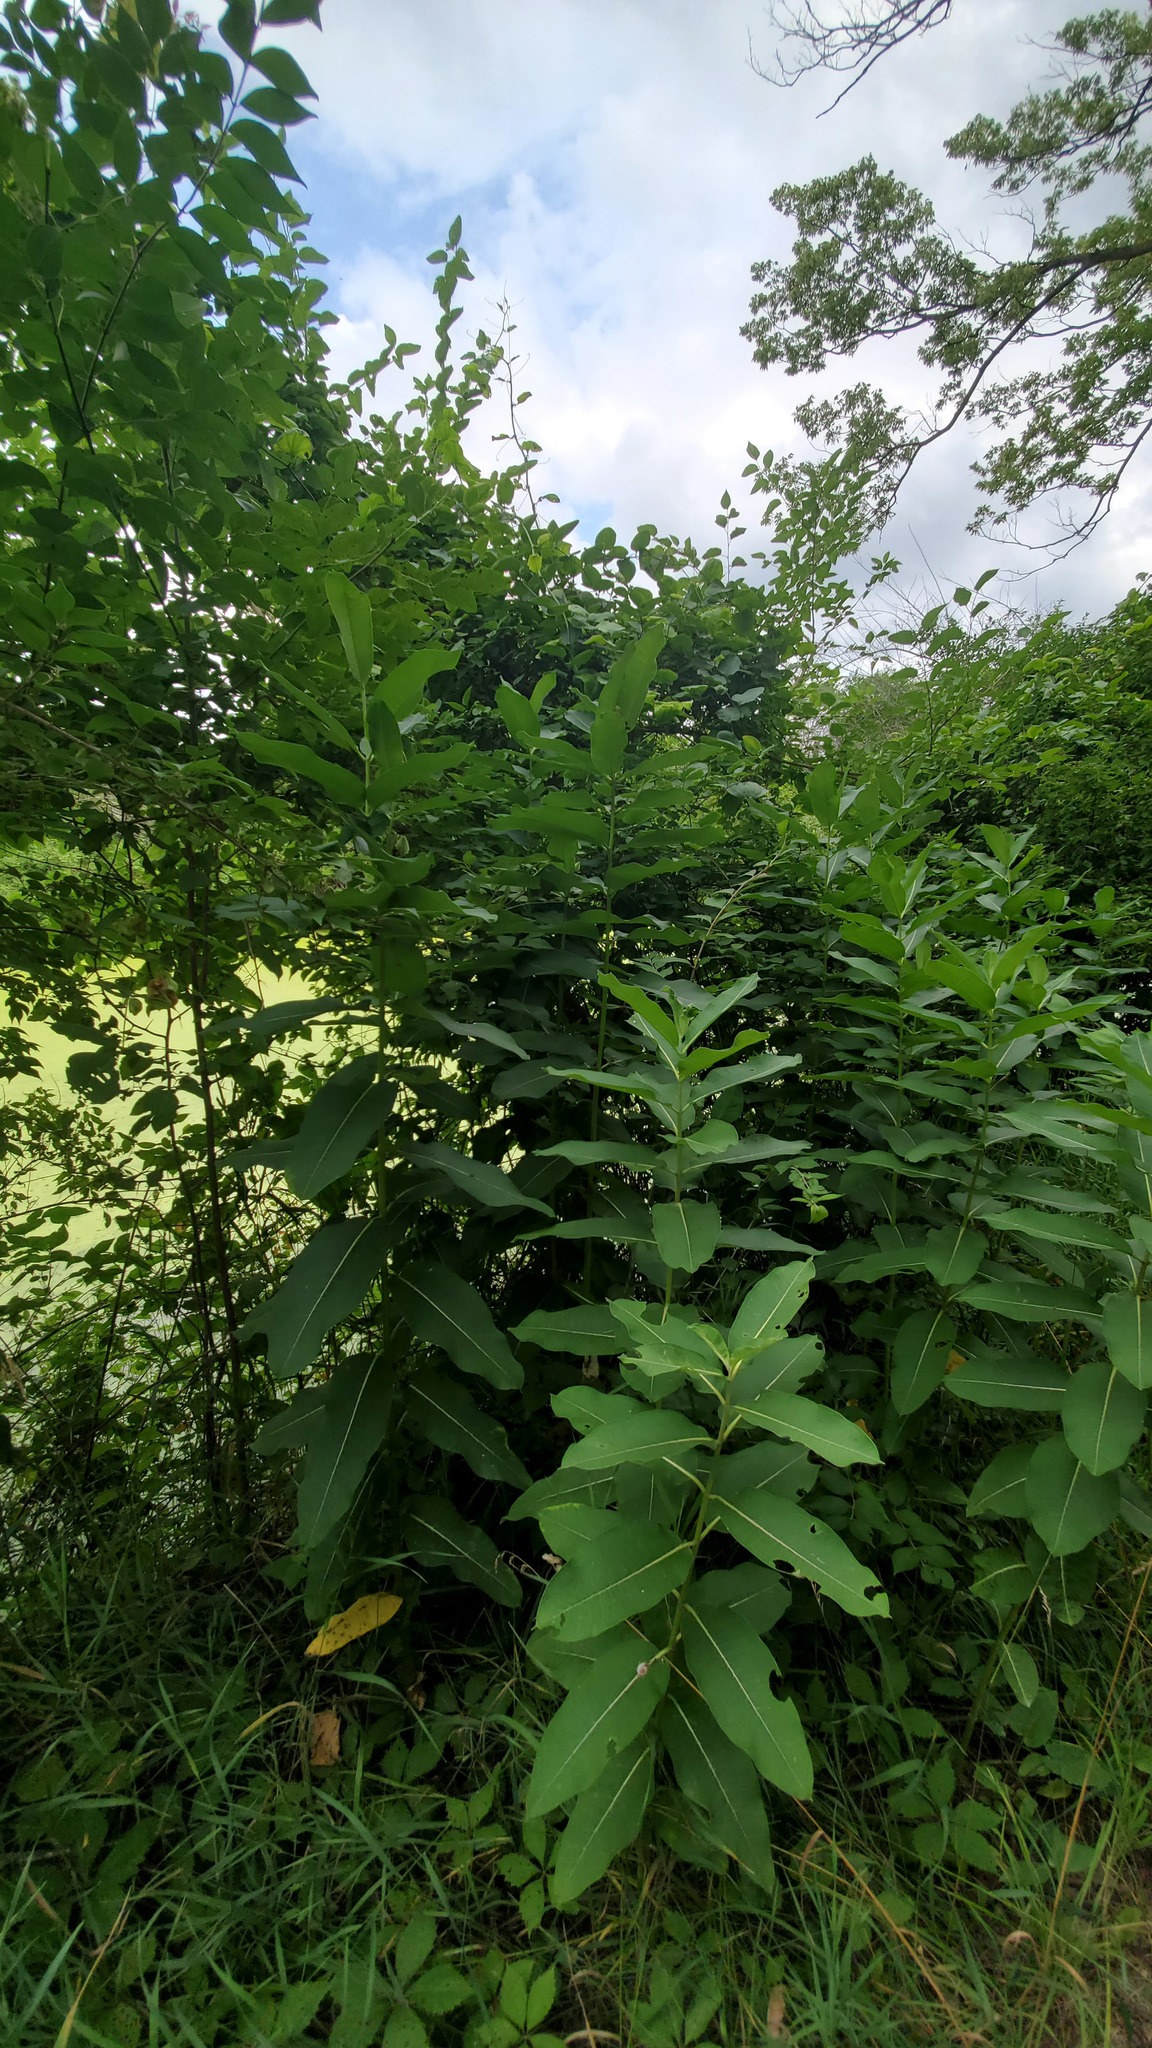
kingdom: Plantae
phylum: Tracheophyta
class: Magnoliopsida
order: Gentianales
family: Apocynaceae
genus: Asclepias
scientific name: Asclepias syriaca
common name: Common milkweed
